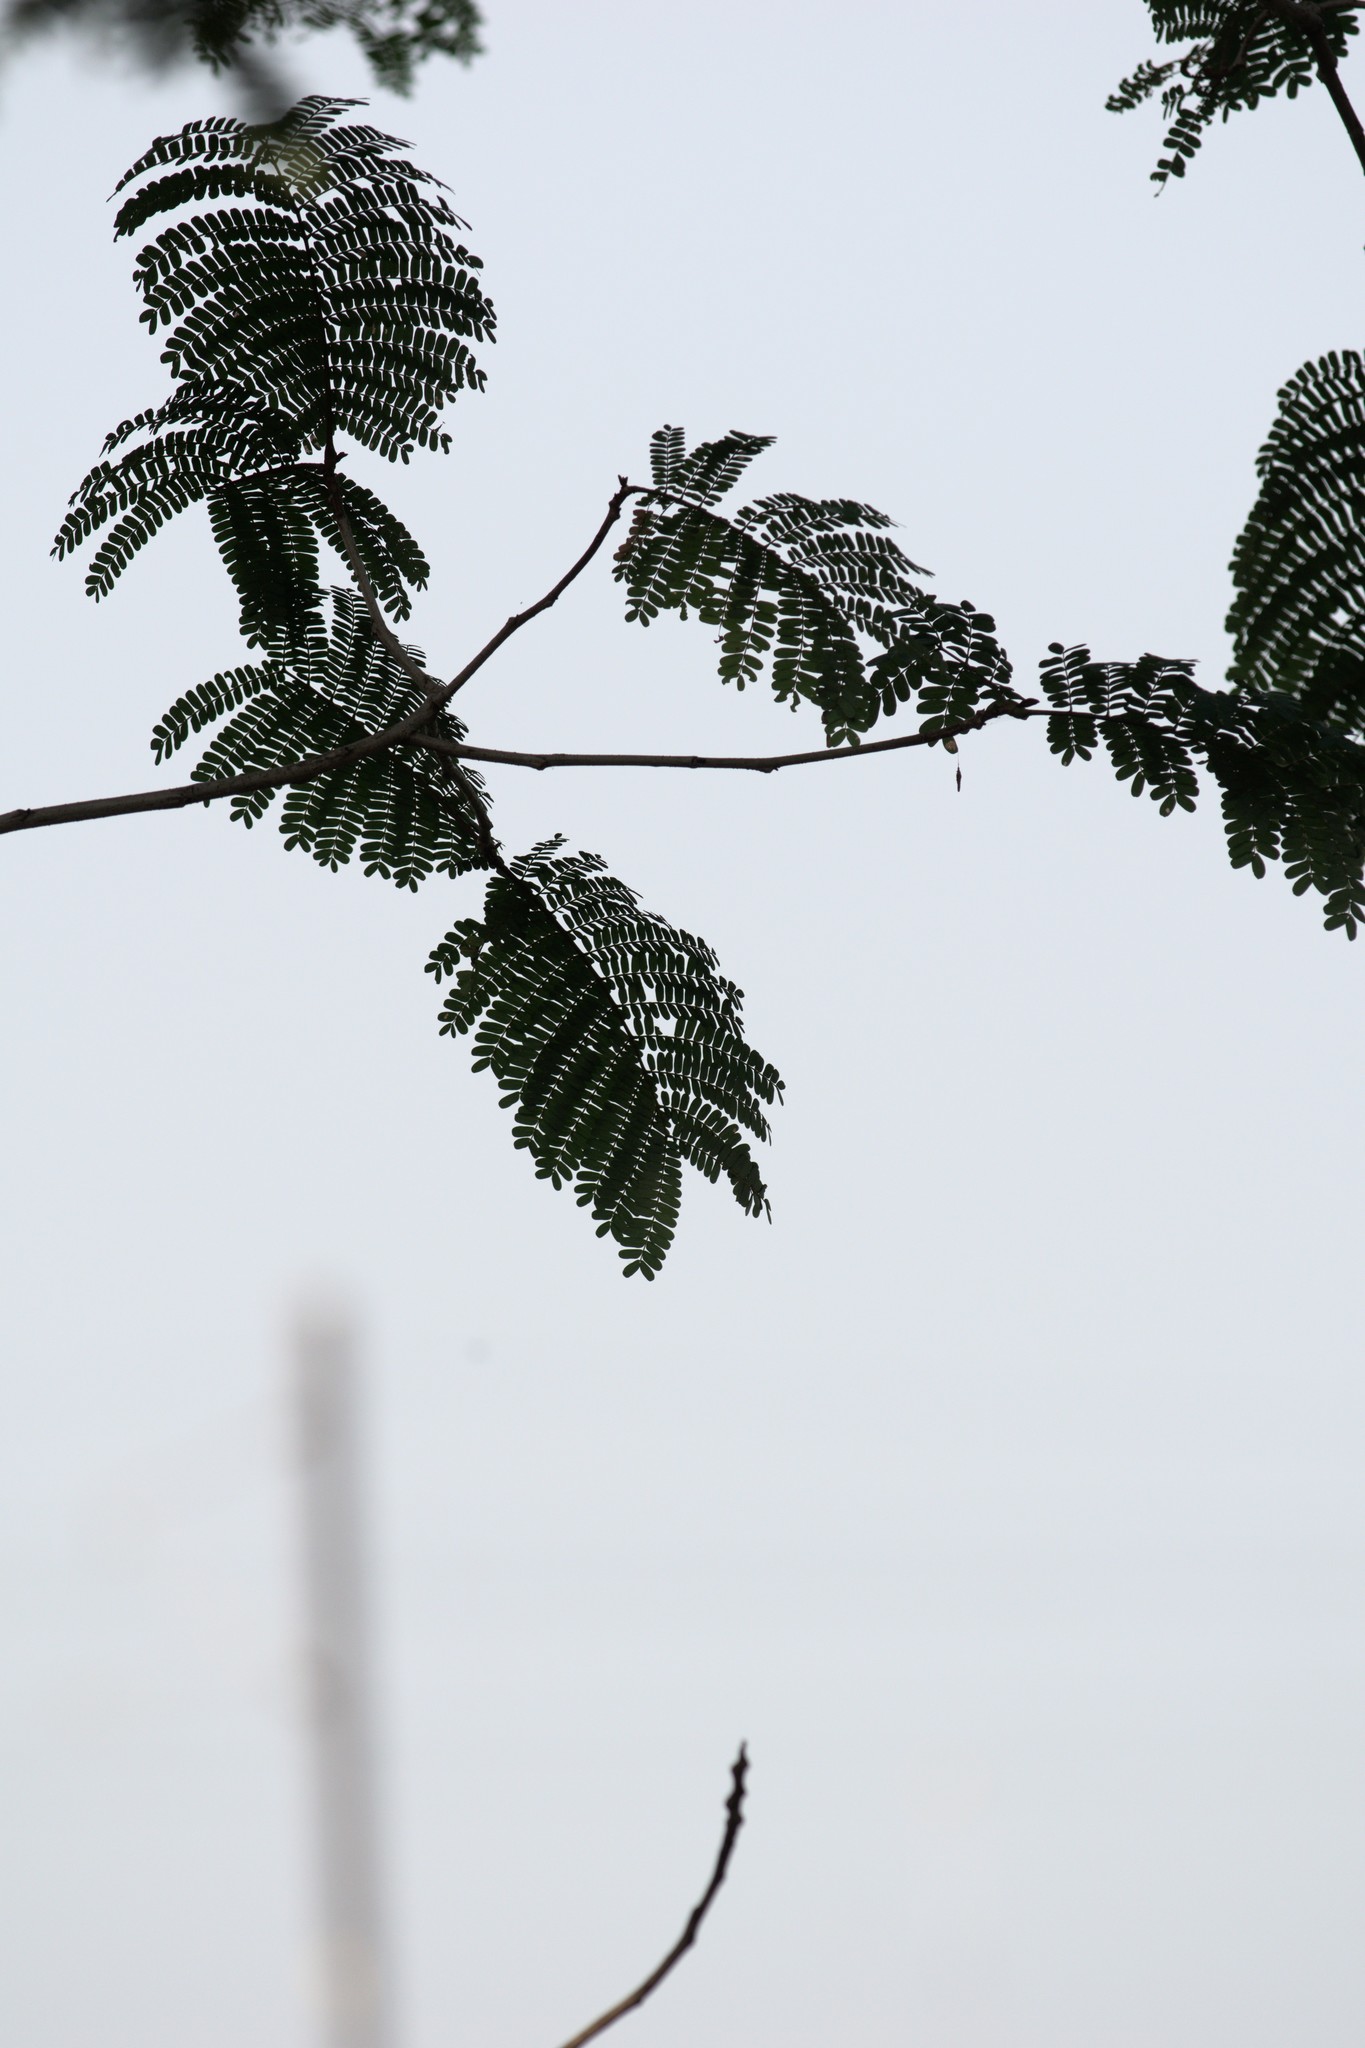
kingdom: Plantae
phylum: Tracheophyta
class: Magnoliopsida
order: Fabales
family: Fabaceae
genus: Peltophorum
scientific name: Peltophorum pterocarpum
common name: Yellow flame
